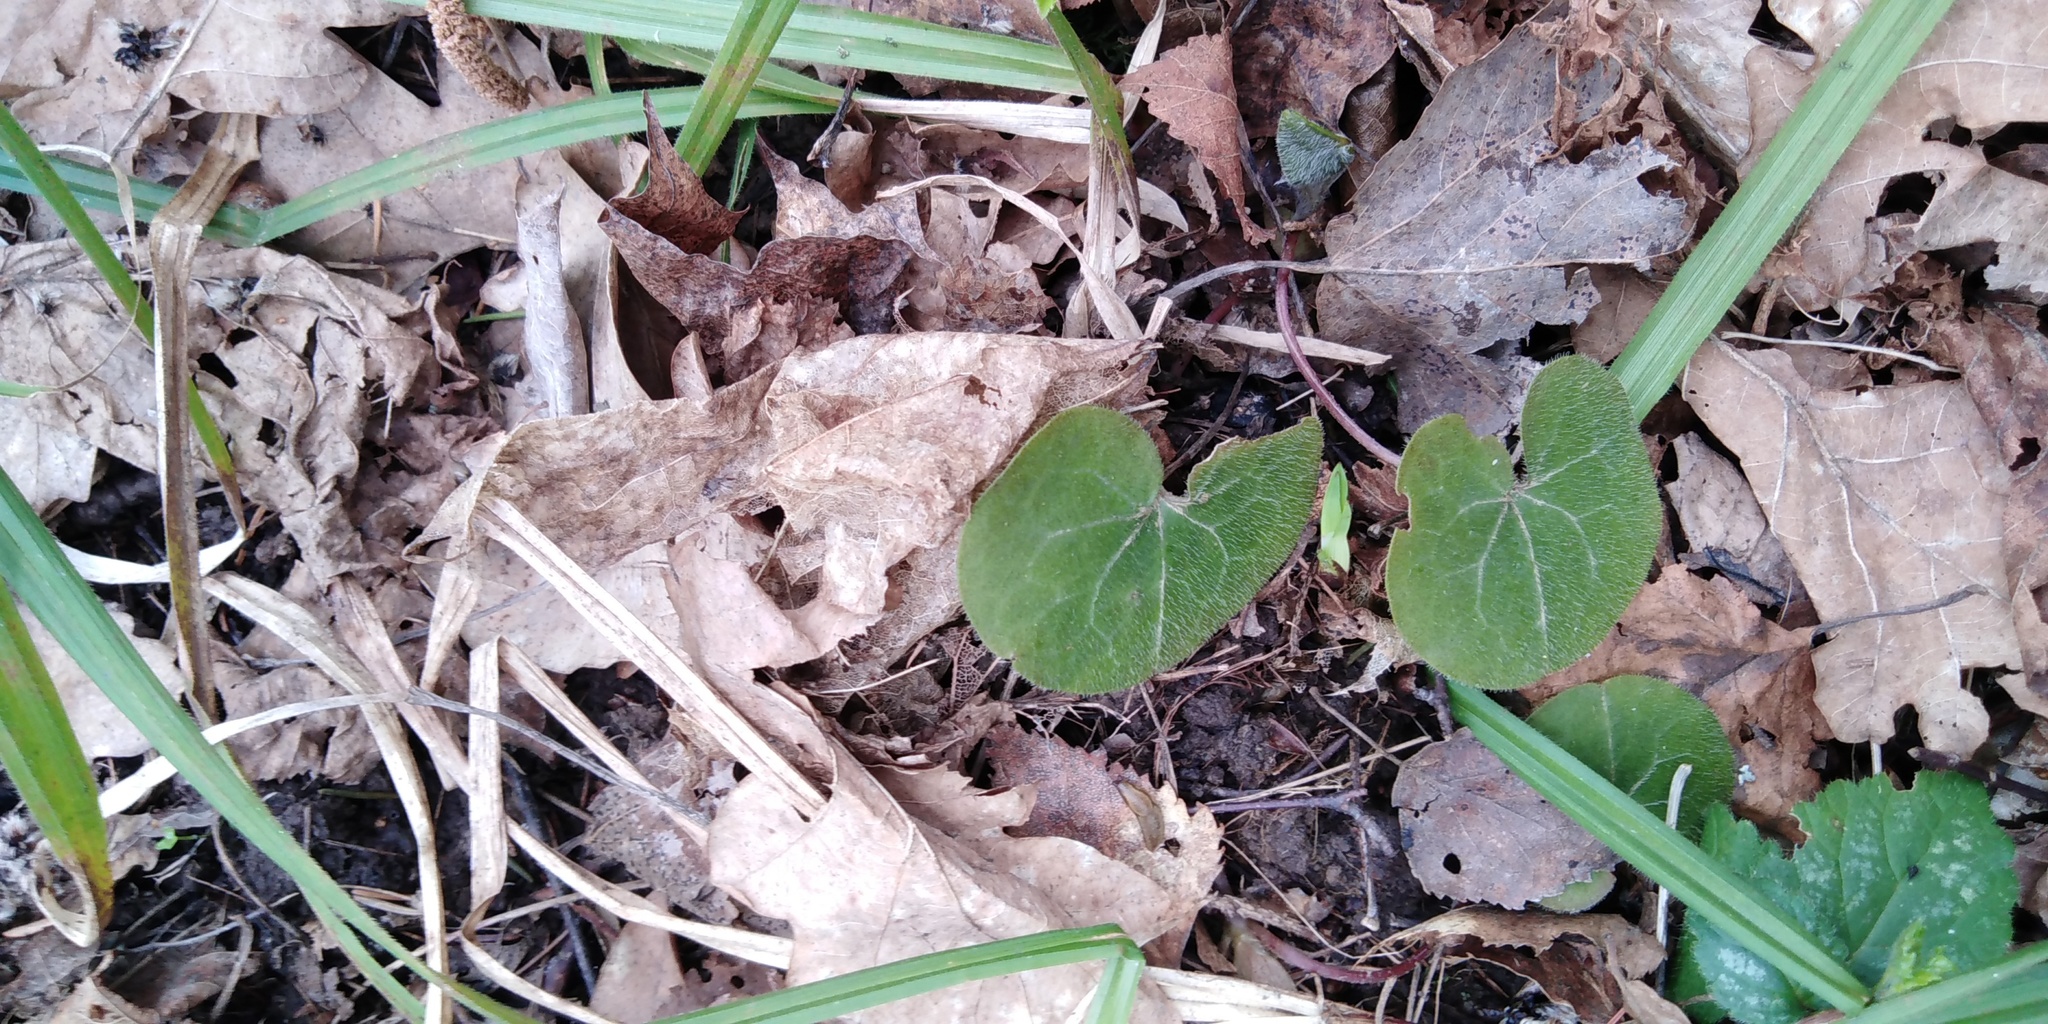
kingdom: Plantae
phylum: Tracheophyta
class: Magnoliopsida
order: Piperales
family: Aristolochiaceae
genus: Asarum
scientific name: Asarum europaeum
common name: Asarabacca
